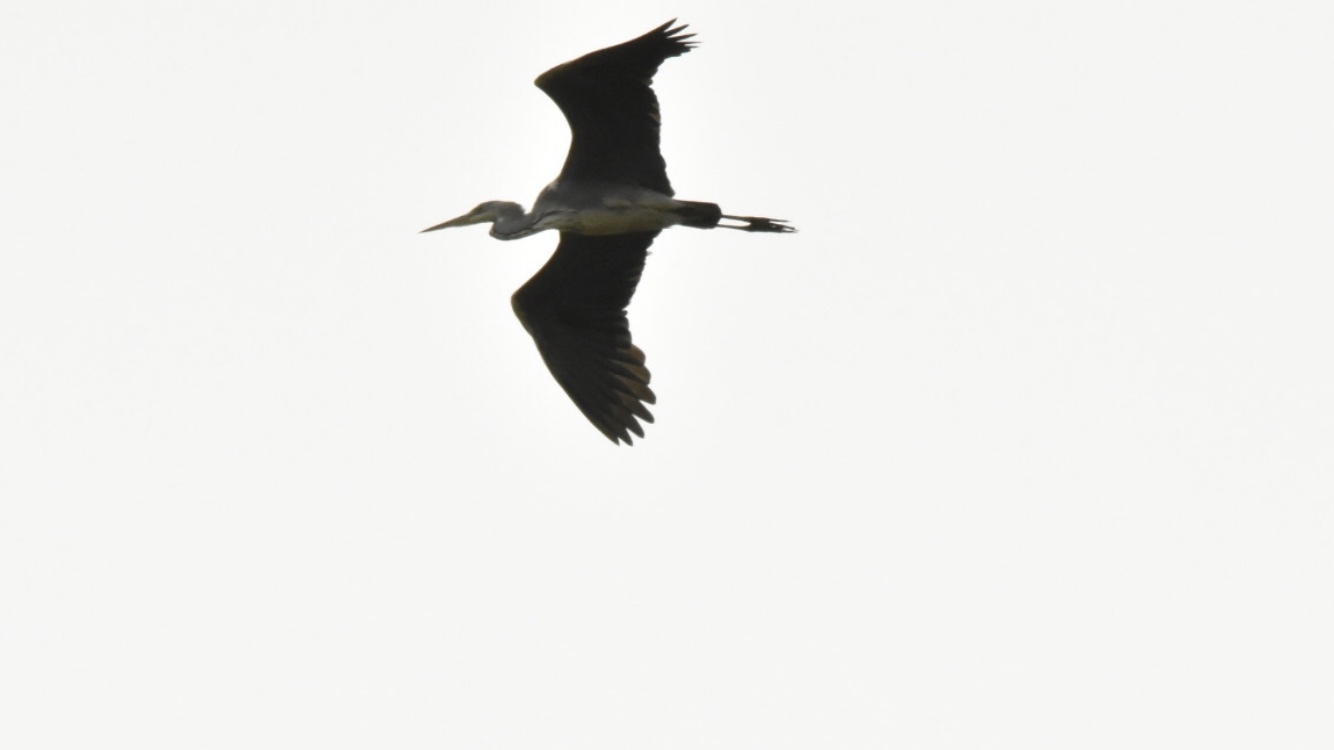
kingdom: Animalia
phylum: Chordata
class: Aves
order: Pelecaniformes
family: Ardeidae
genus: Ardea
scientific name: Ardea cinerea
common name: Grey heron
